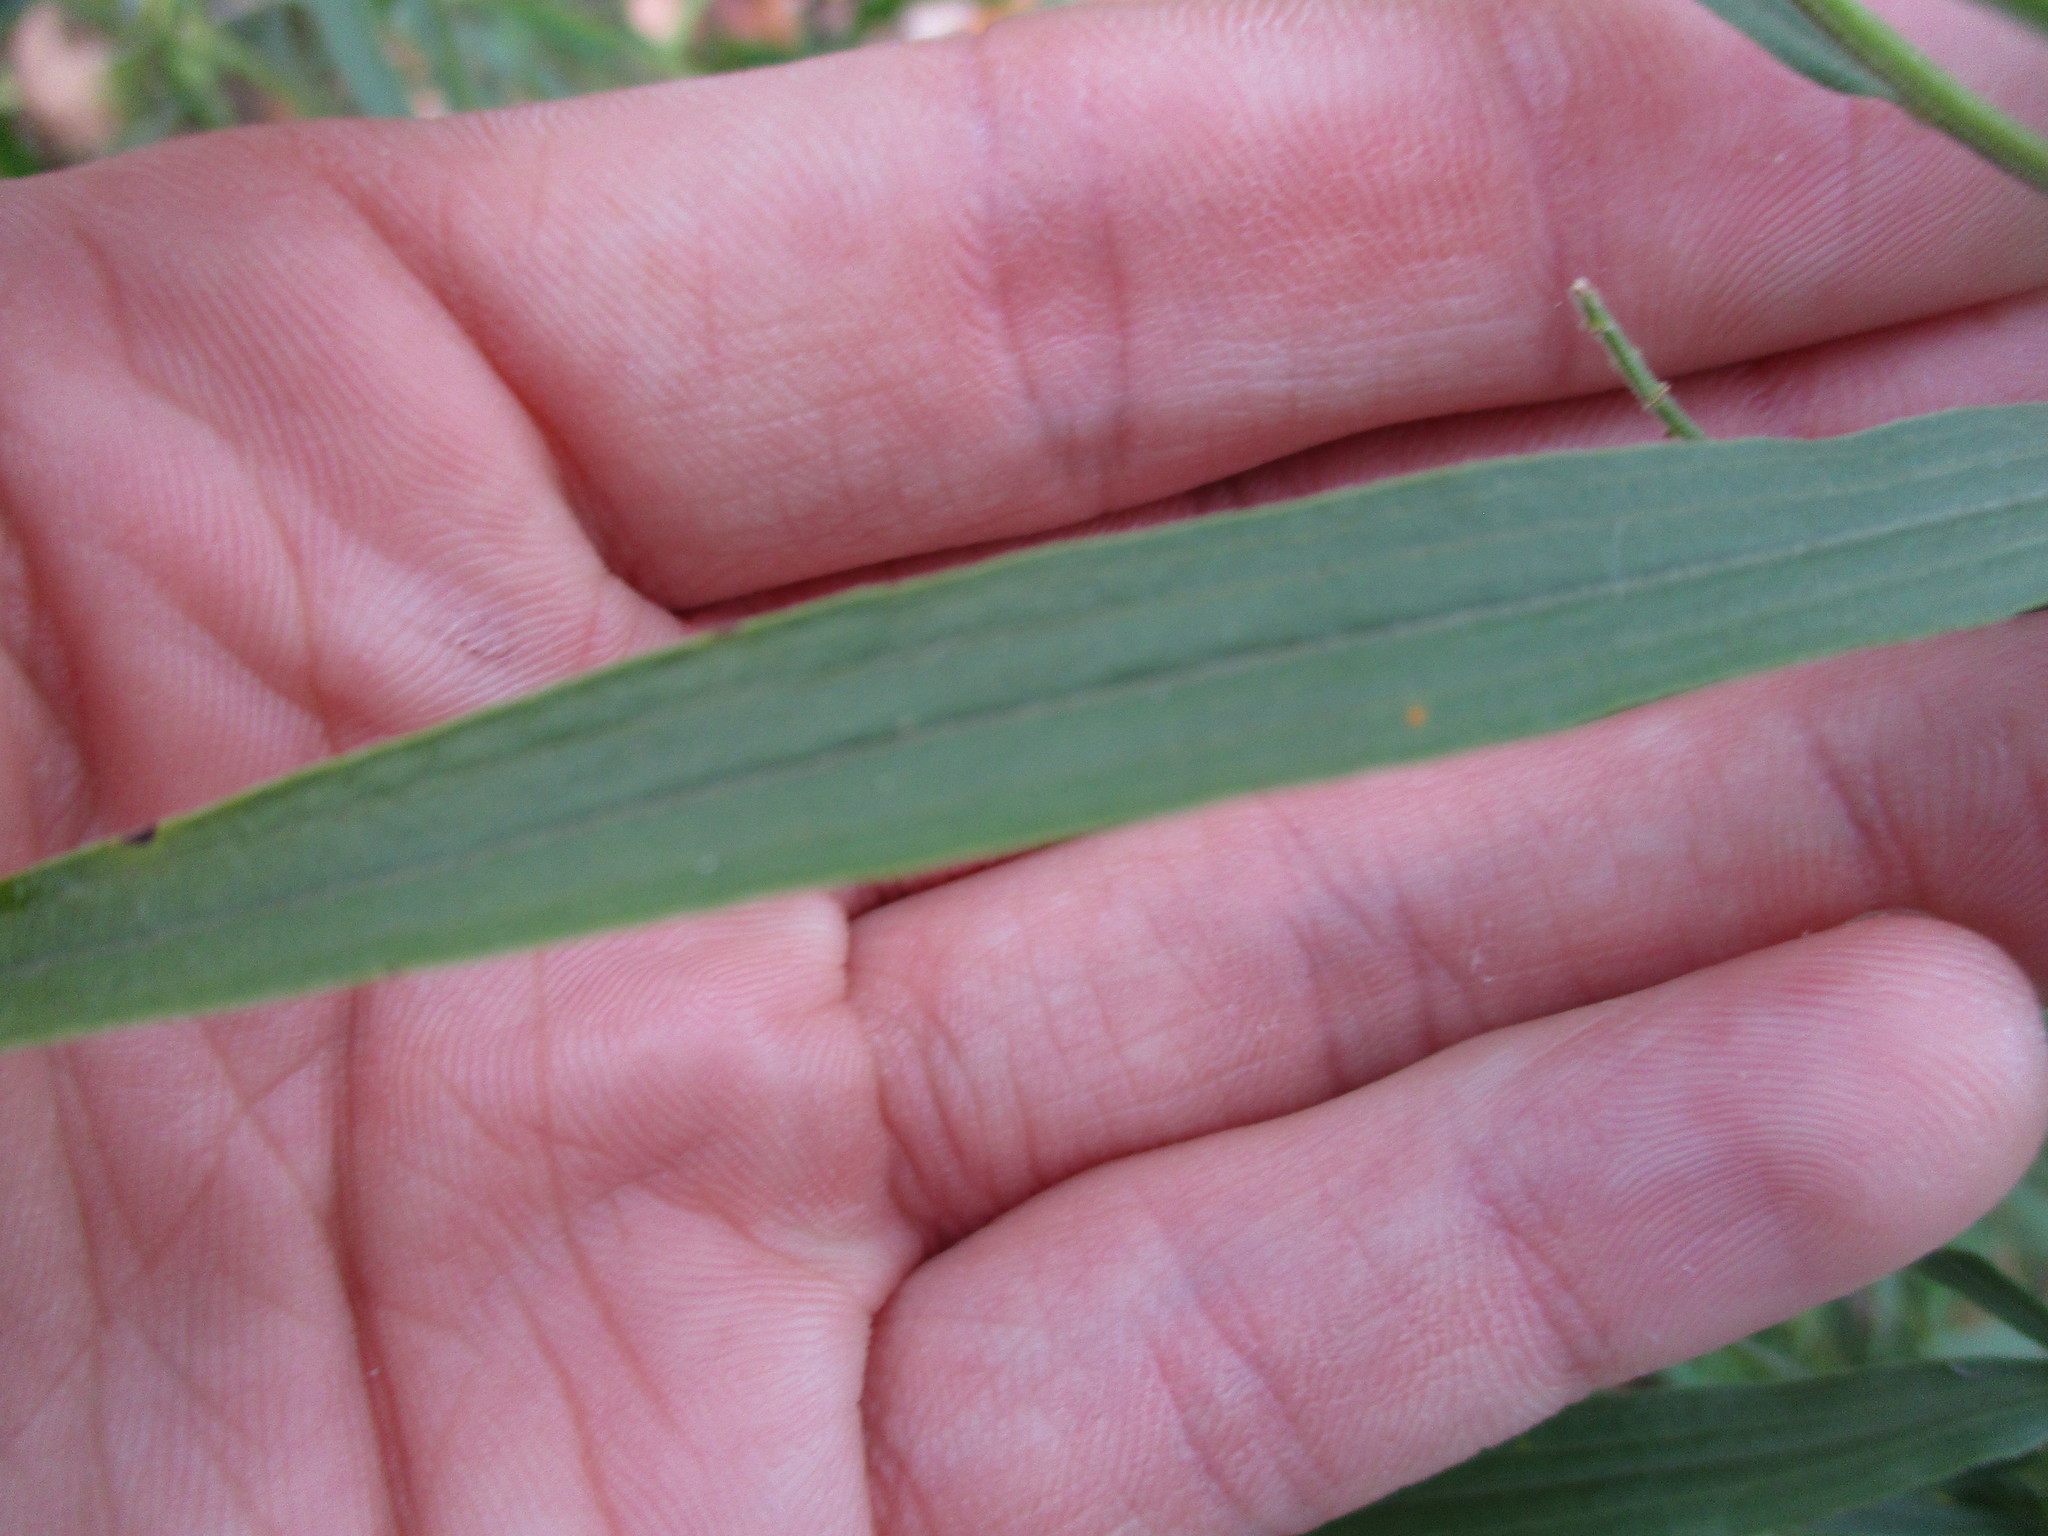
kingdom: Plantae
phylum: Tracheophyta
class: Magnoliopsida
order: Asterales
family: Asteraceae
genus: Euthamia
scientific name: Euthamia graminifolia
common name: Common goldentop
